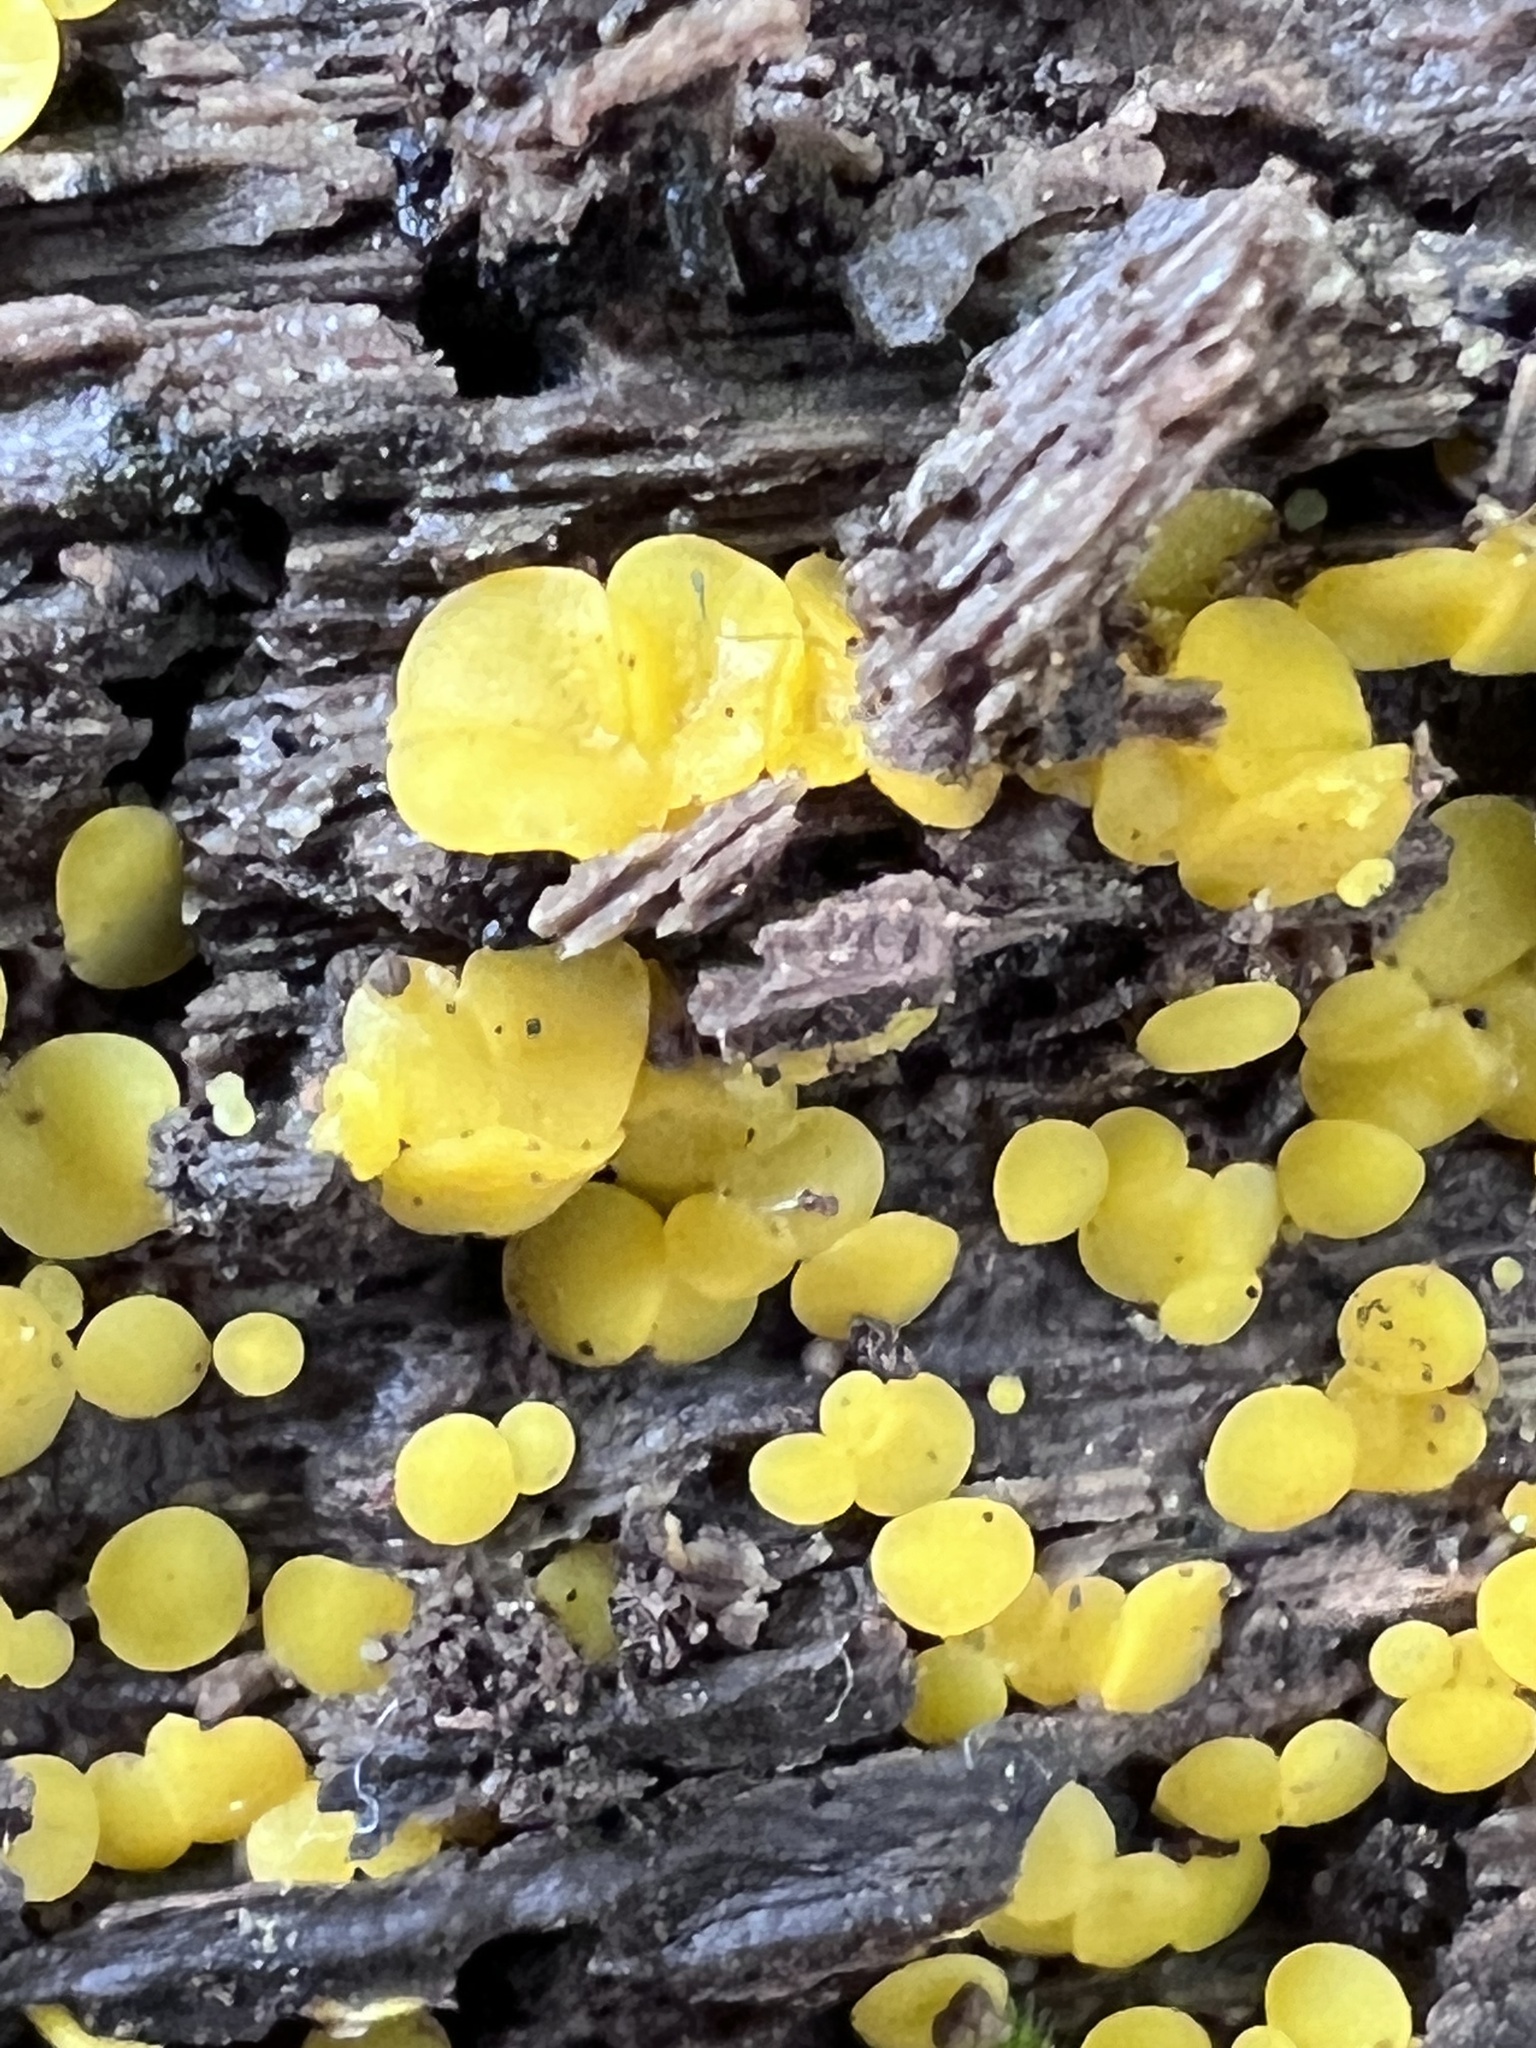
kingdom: Fungi
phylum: Ascomycota
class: Leotiomycetes
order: Helotiales
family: Pezizellaceae
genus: Calycina
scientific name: Calycina citrina
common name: Yellow fairy cups
